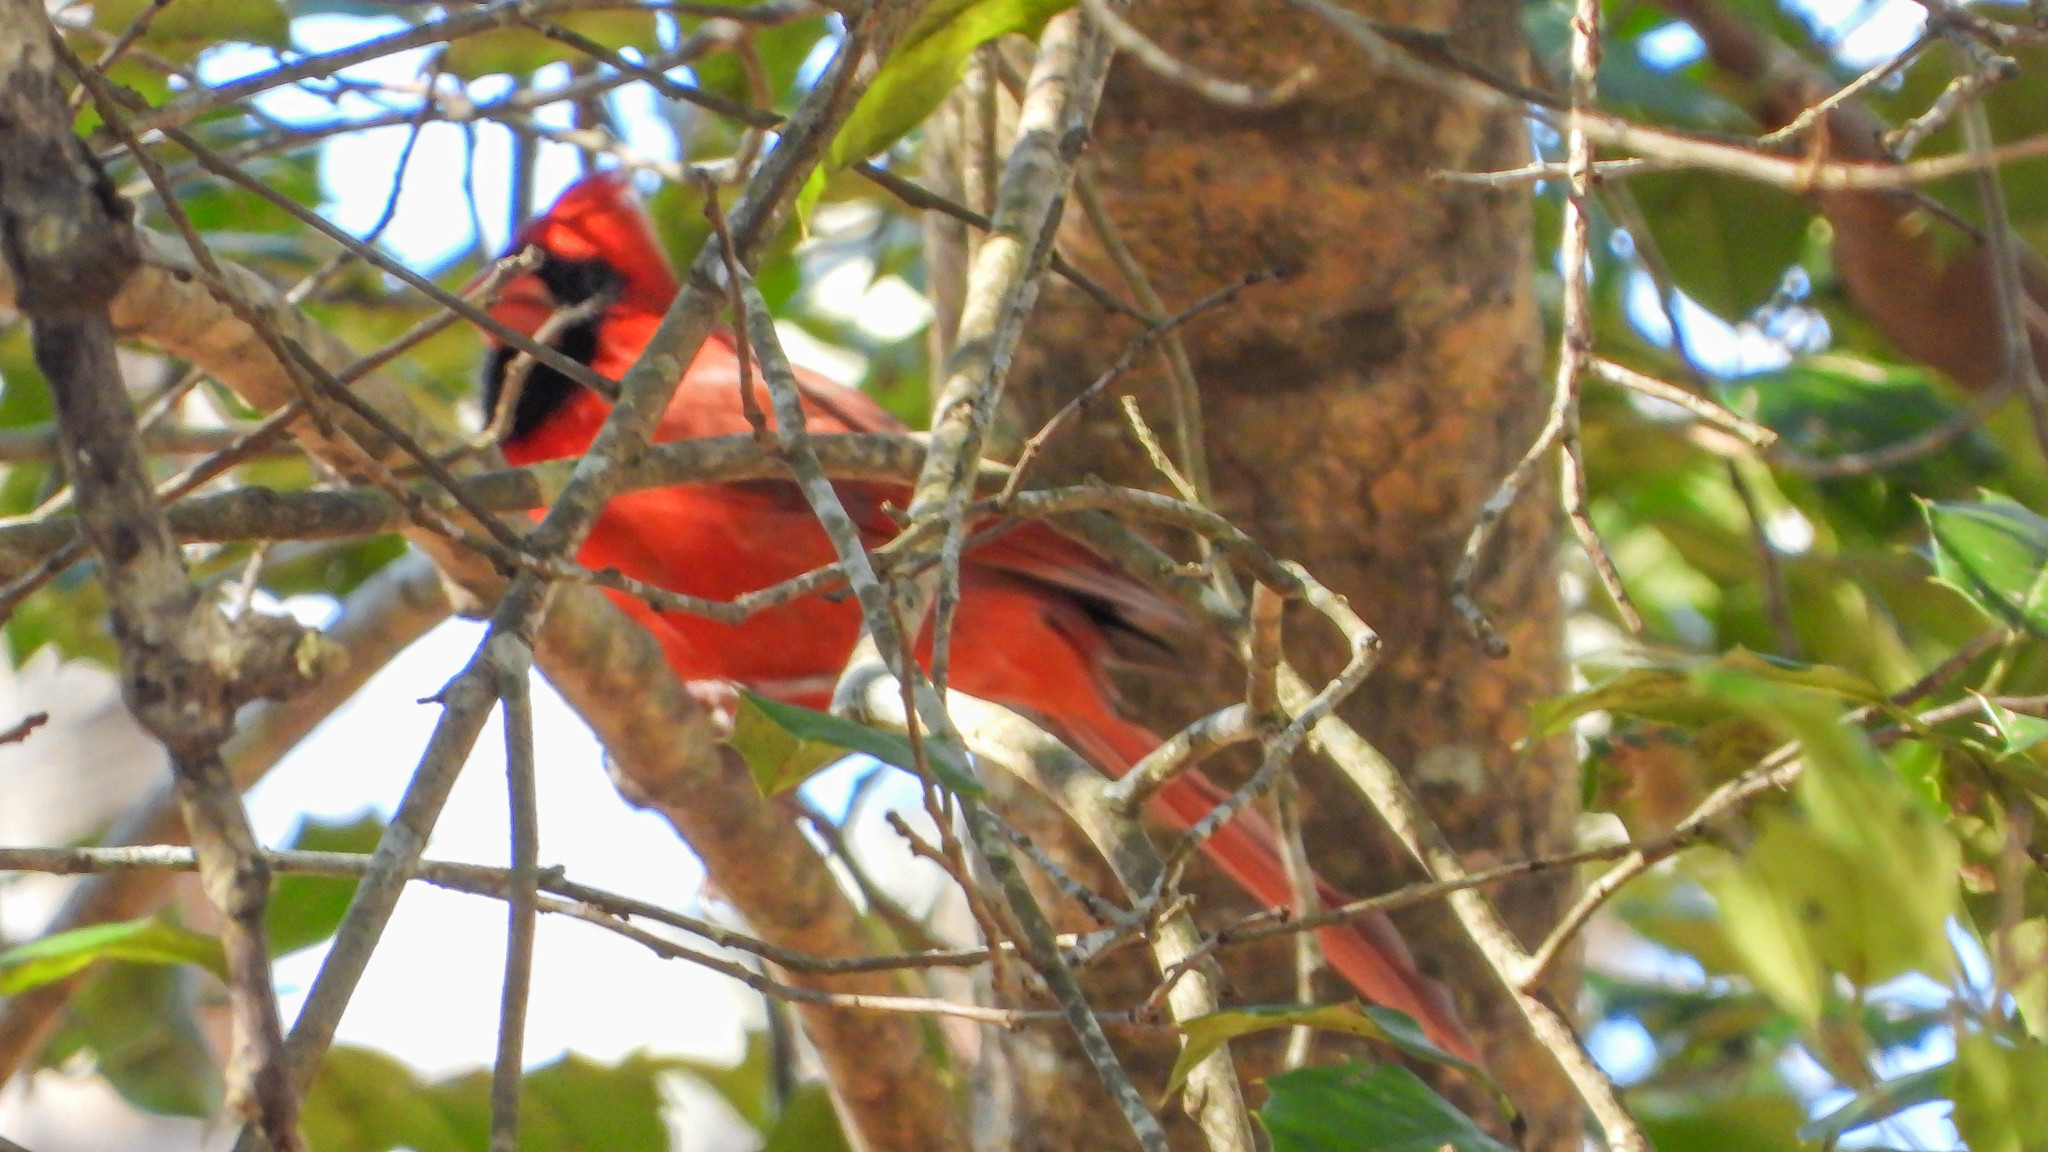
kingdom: Animalia
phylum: Chordata
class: Aves
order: Passeriformes
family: Cardinalidae
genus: Cardinalis
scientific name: Cardinalis cardinalis
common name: Northern cardinal
